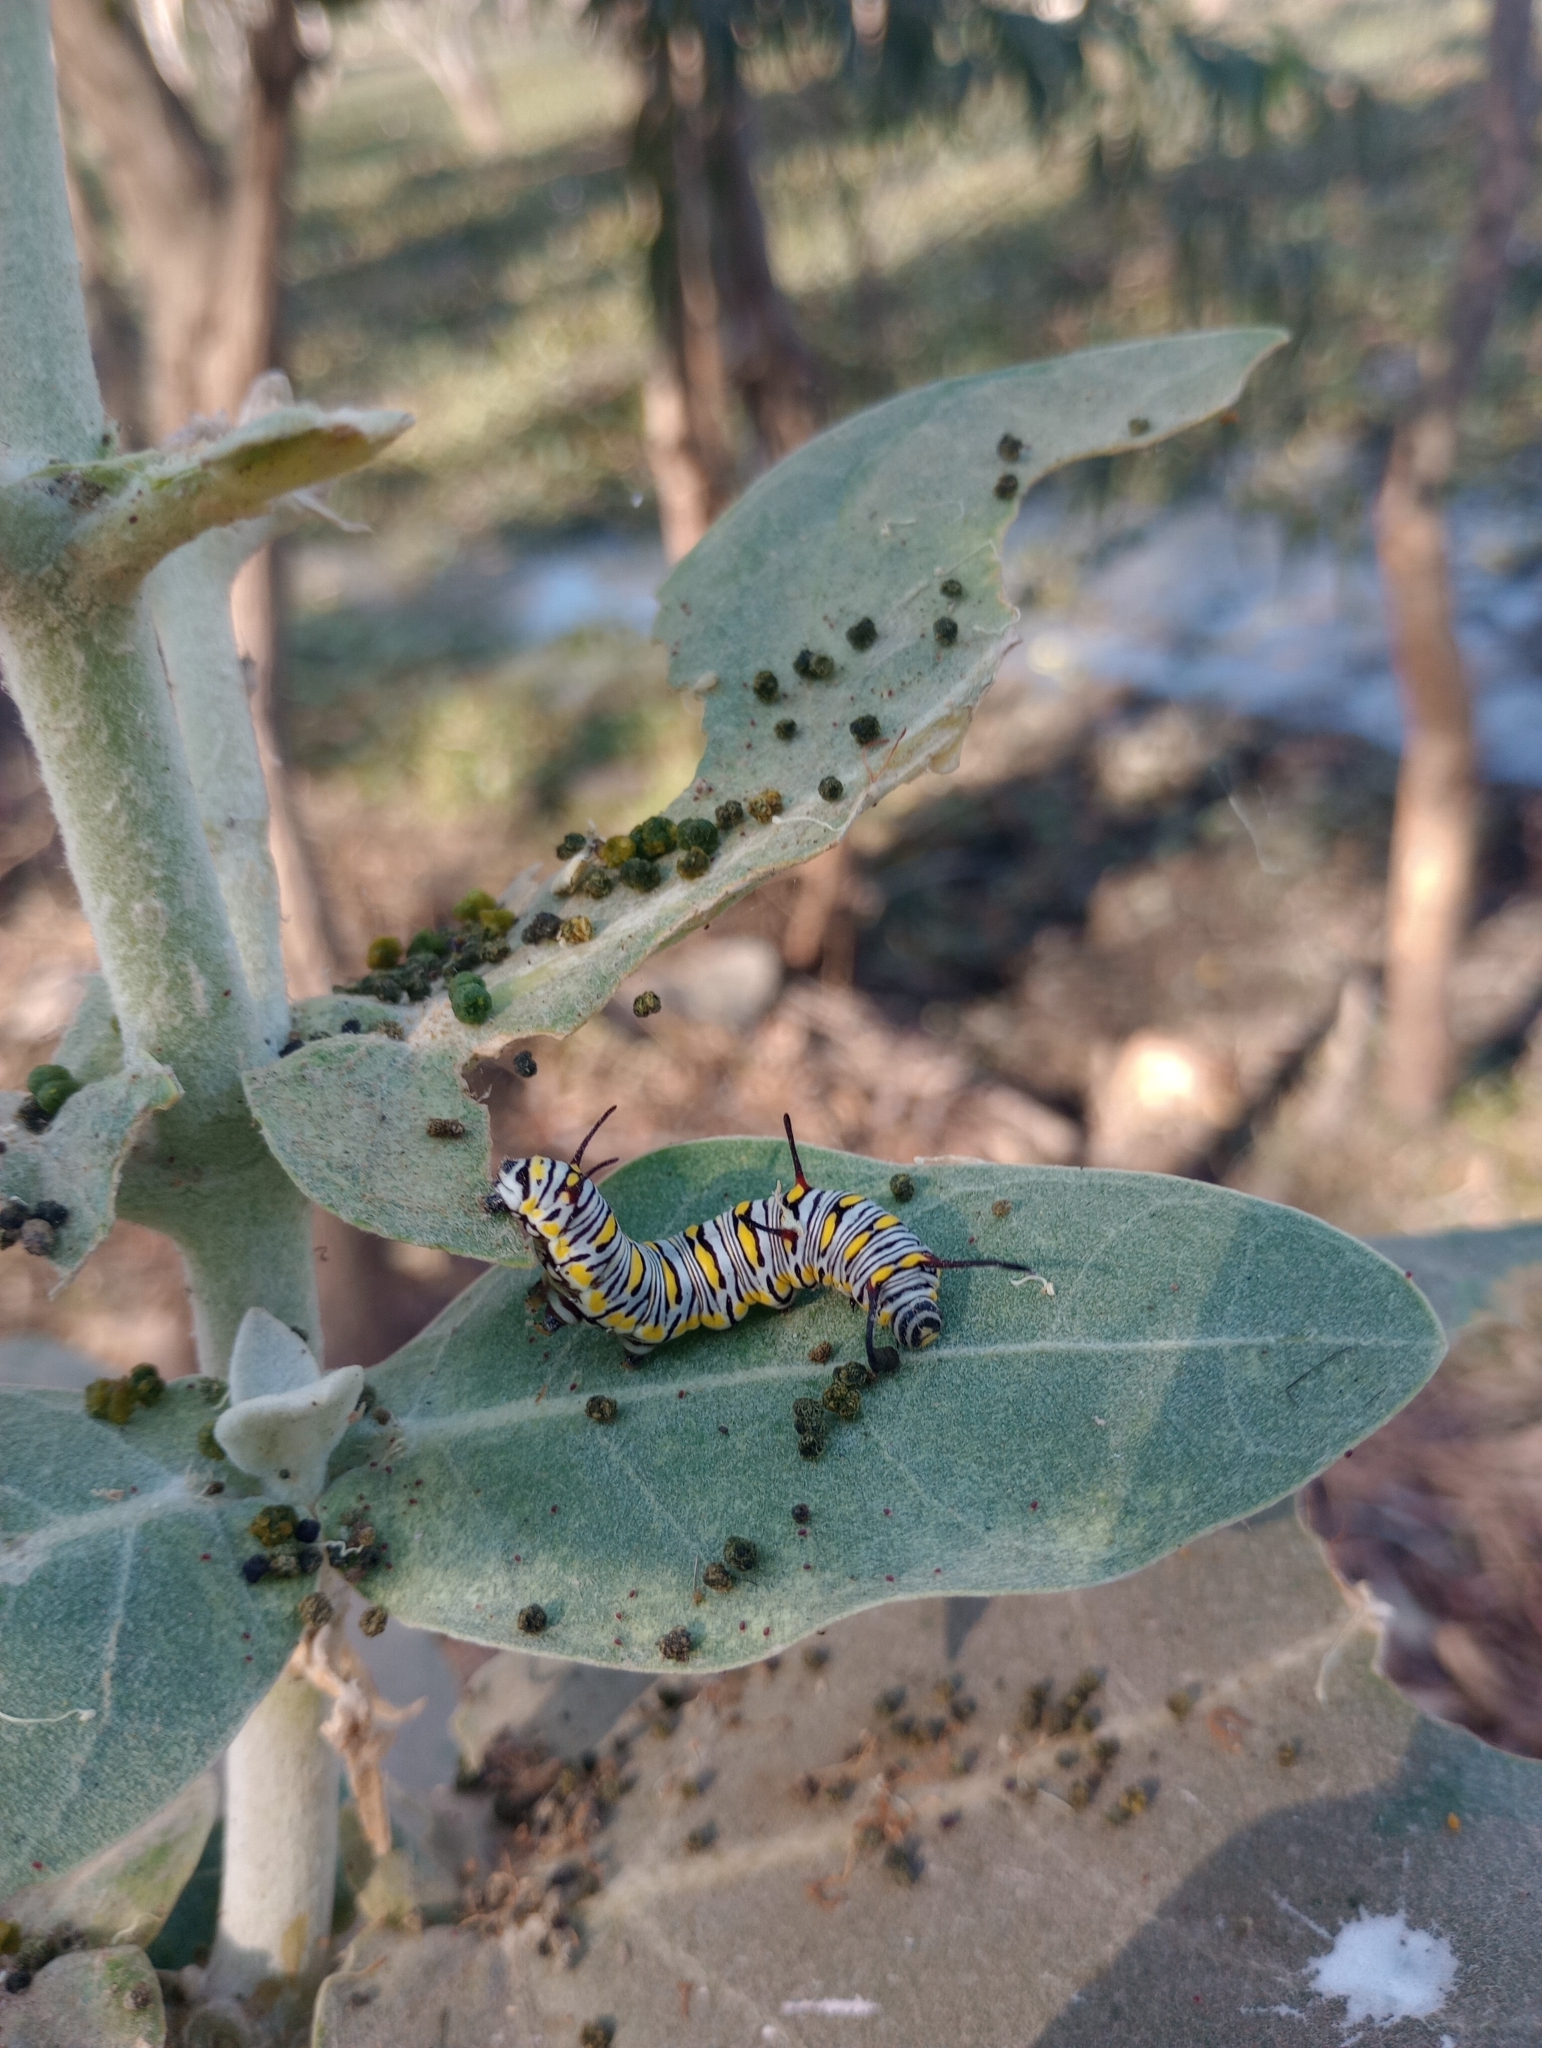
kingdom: Animalia
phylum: Arthropoda
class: Insecta
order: Lepidoptera
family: Nymphalidae
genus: Danaus
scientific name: Danaus chrysippus
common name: Plain tiger
